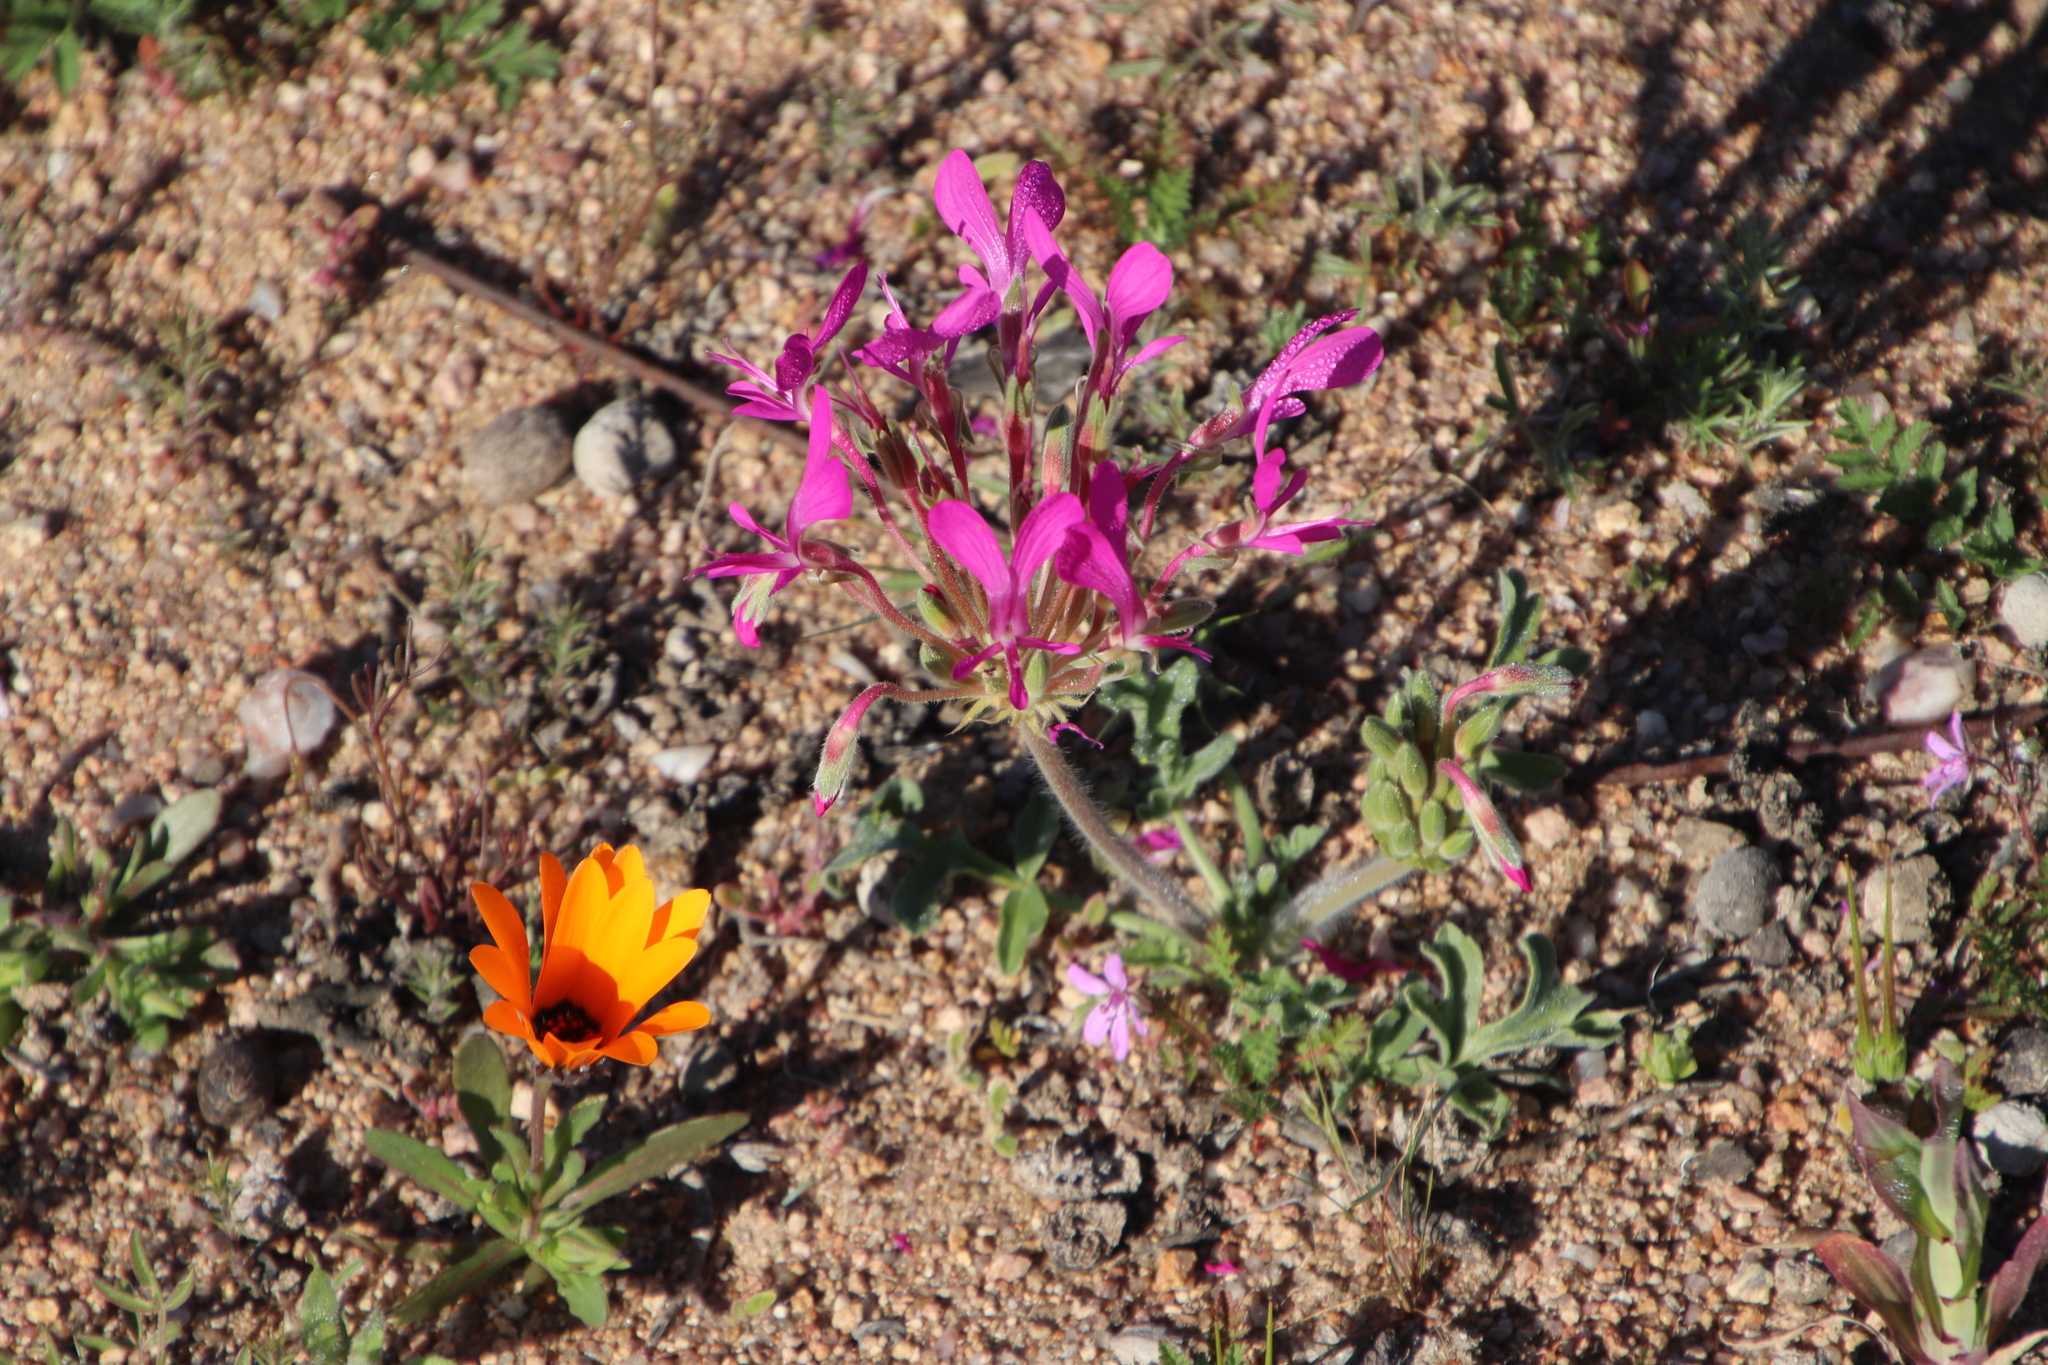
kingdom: Plantae
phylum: Tracheophyta
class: Magnoliopsida
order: Geraniales
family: Geraniaceae
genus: Pelargonium
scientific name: Pelargonium incrassatum
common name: Namaqualand beauty
